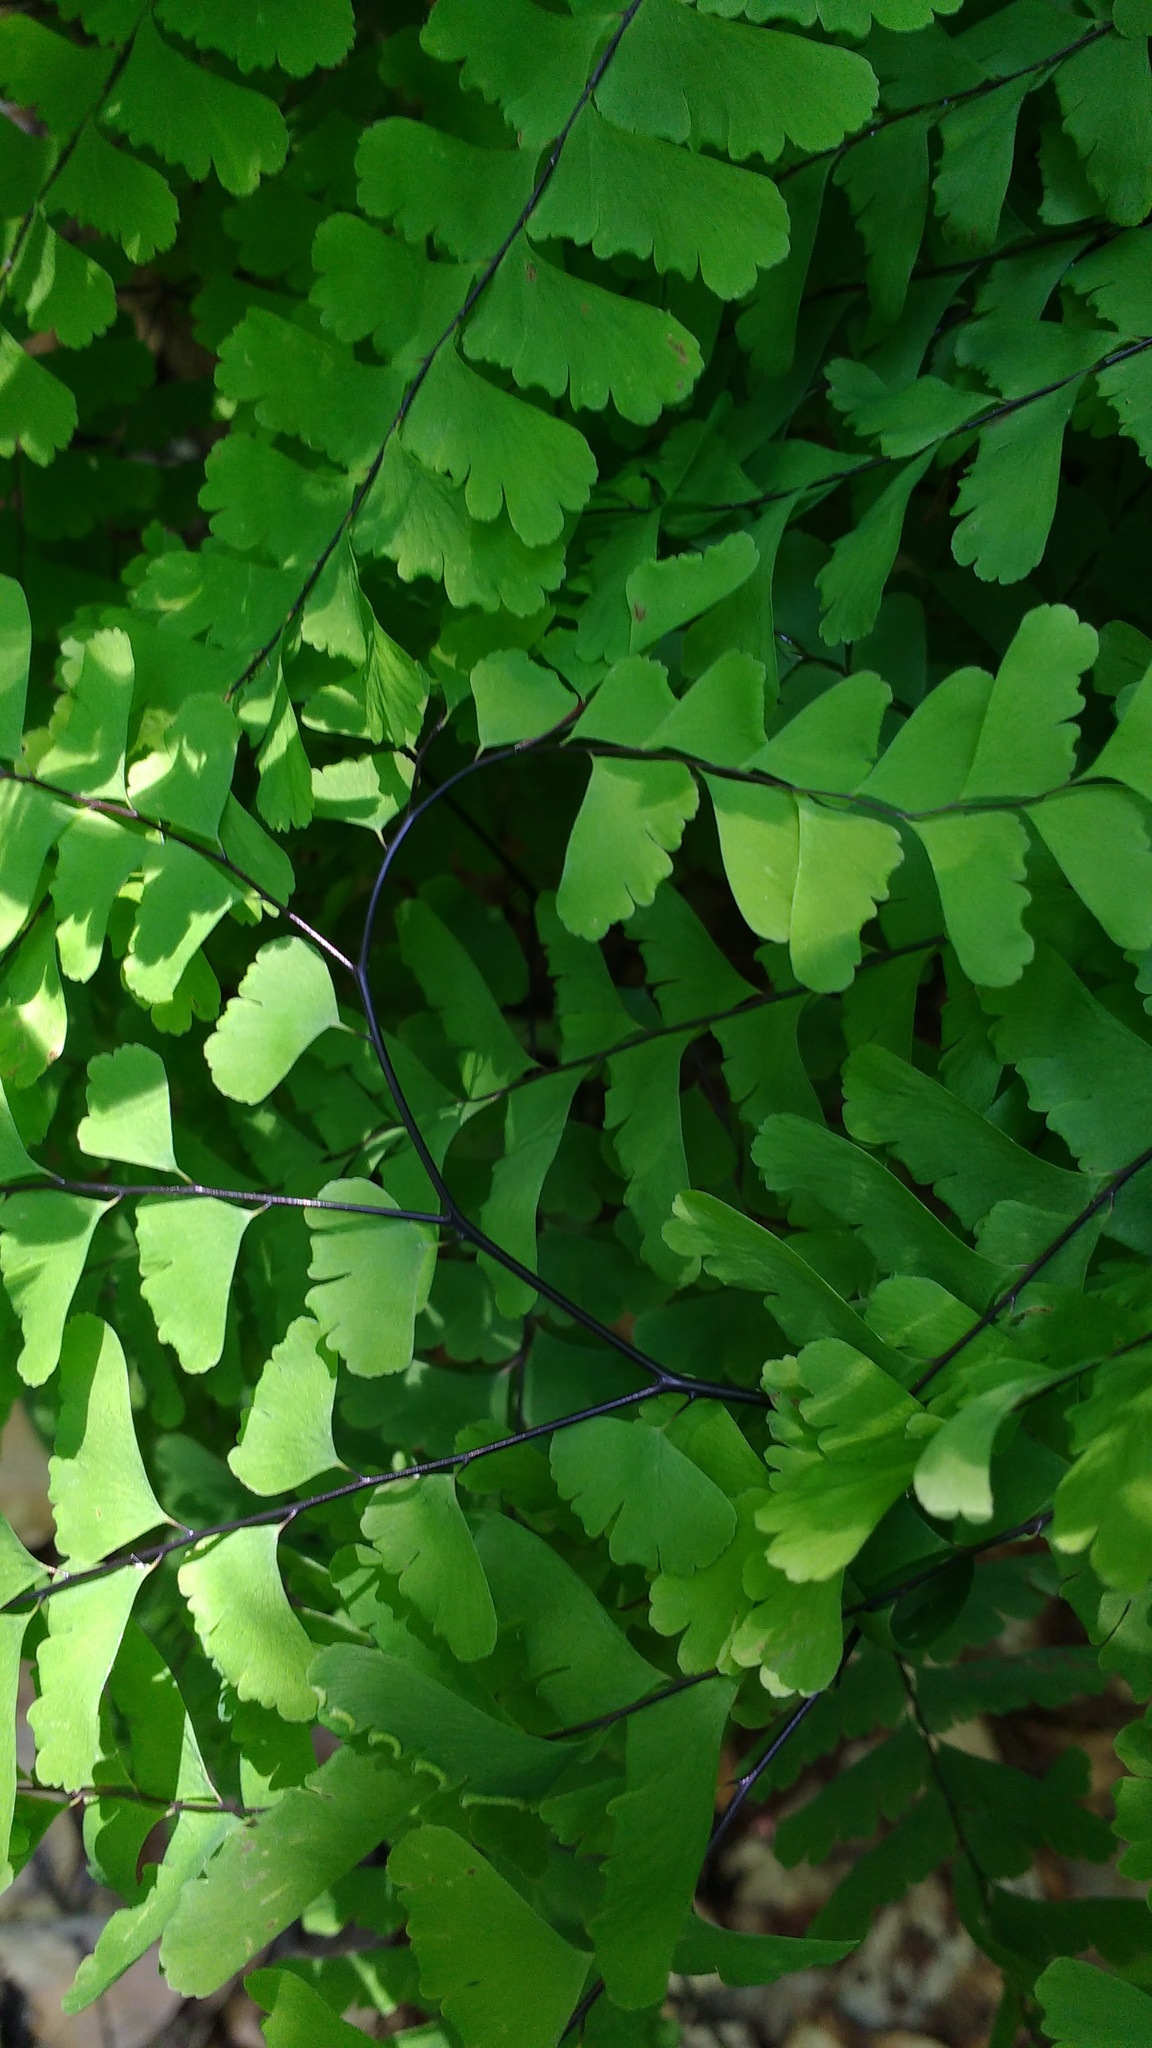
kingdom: Plantae
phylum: Tracheophyta
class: Polypodiopsida
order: Polypodiales
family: Pteridaceae
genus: Adiantum
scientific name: Adiantum pedatum
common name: Five-finger fern
